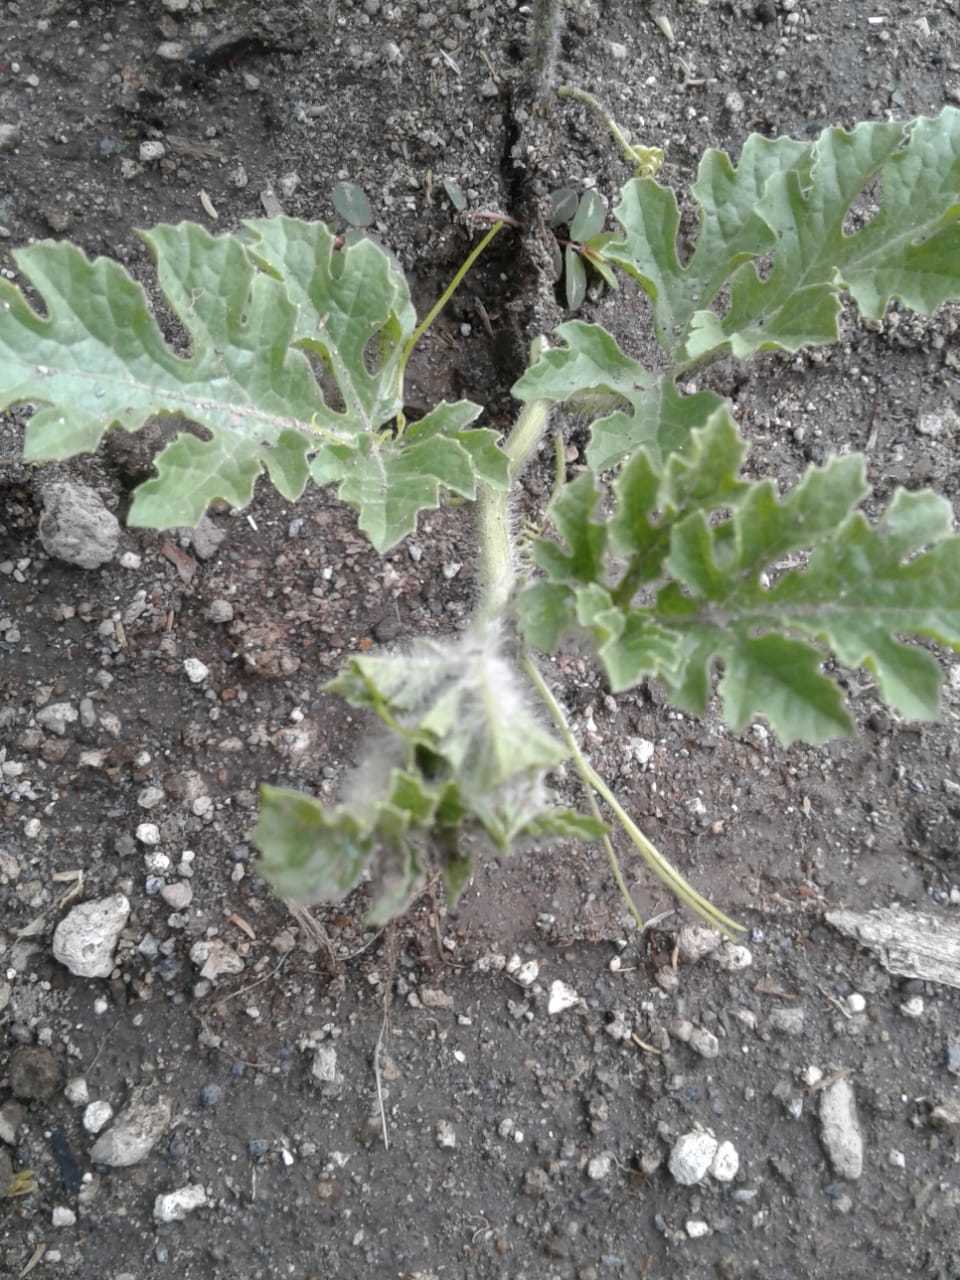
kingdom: Plantae
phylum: Tracheophyta
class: Magnoliopsida
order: Cucurbitales
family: Cucurbitaceae
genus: Citrullus
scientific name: Citrullus lanatus
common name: Watermelon
